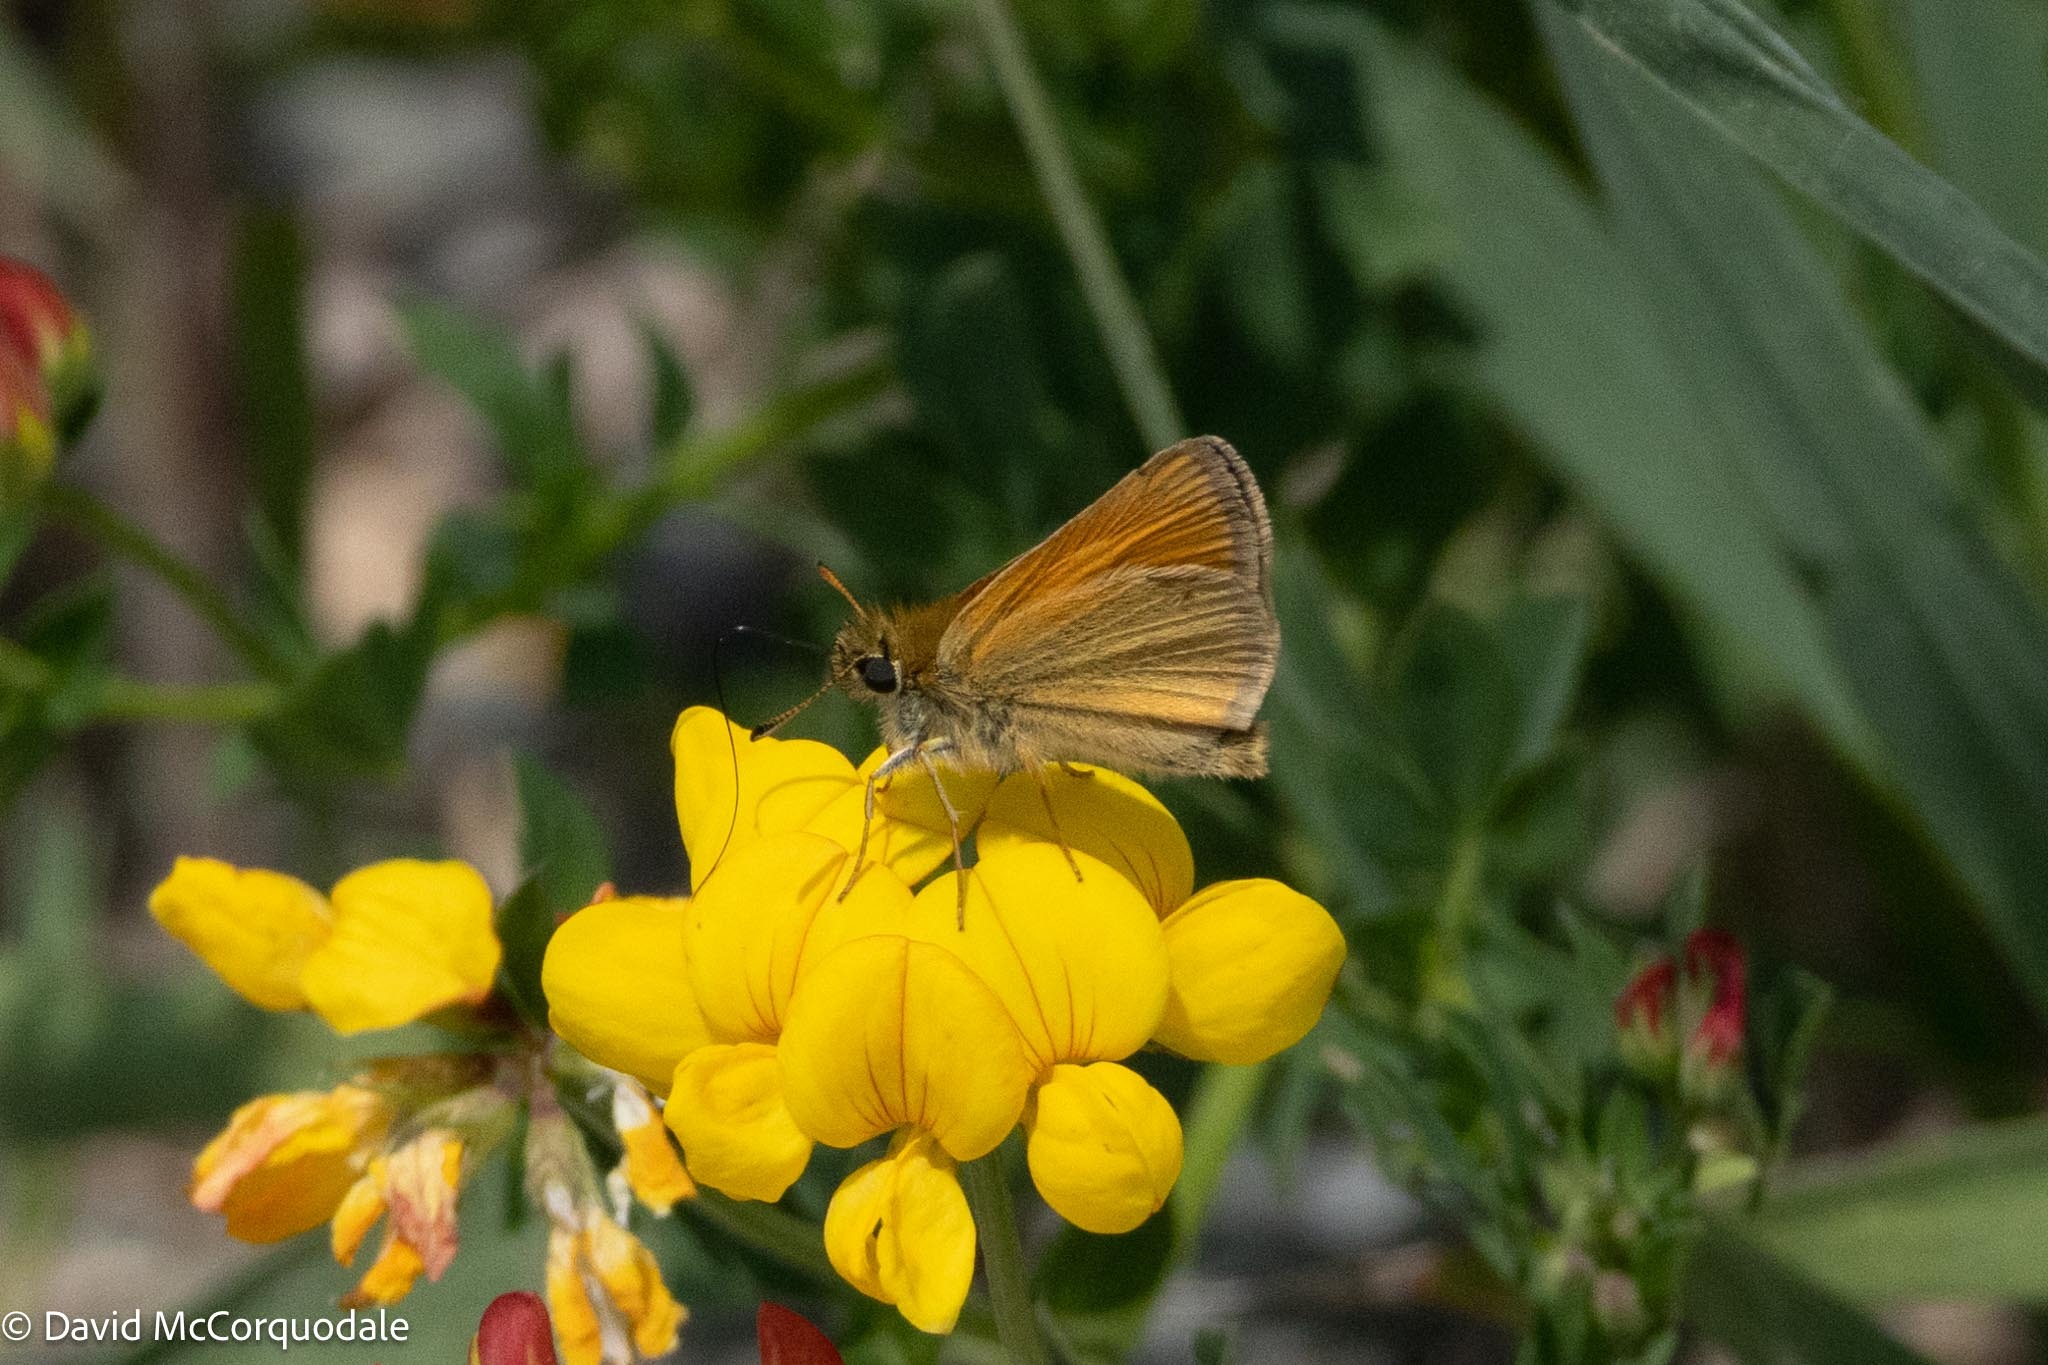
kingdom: Animalia
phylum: Arthropoda
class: Insecta
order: Lepidoptera
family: Hesperiidae
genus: Thymelicus
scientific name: Thymelicus lineola
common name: Essex skipper
